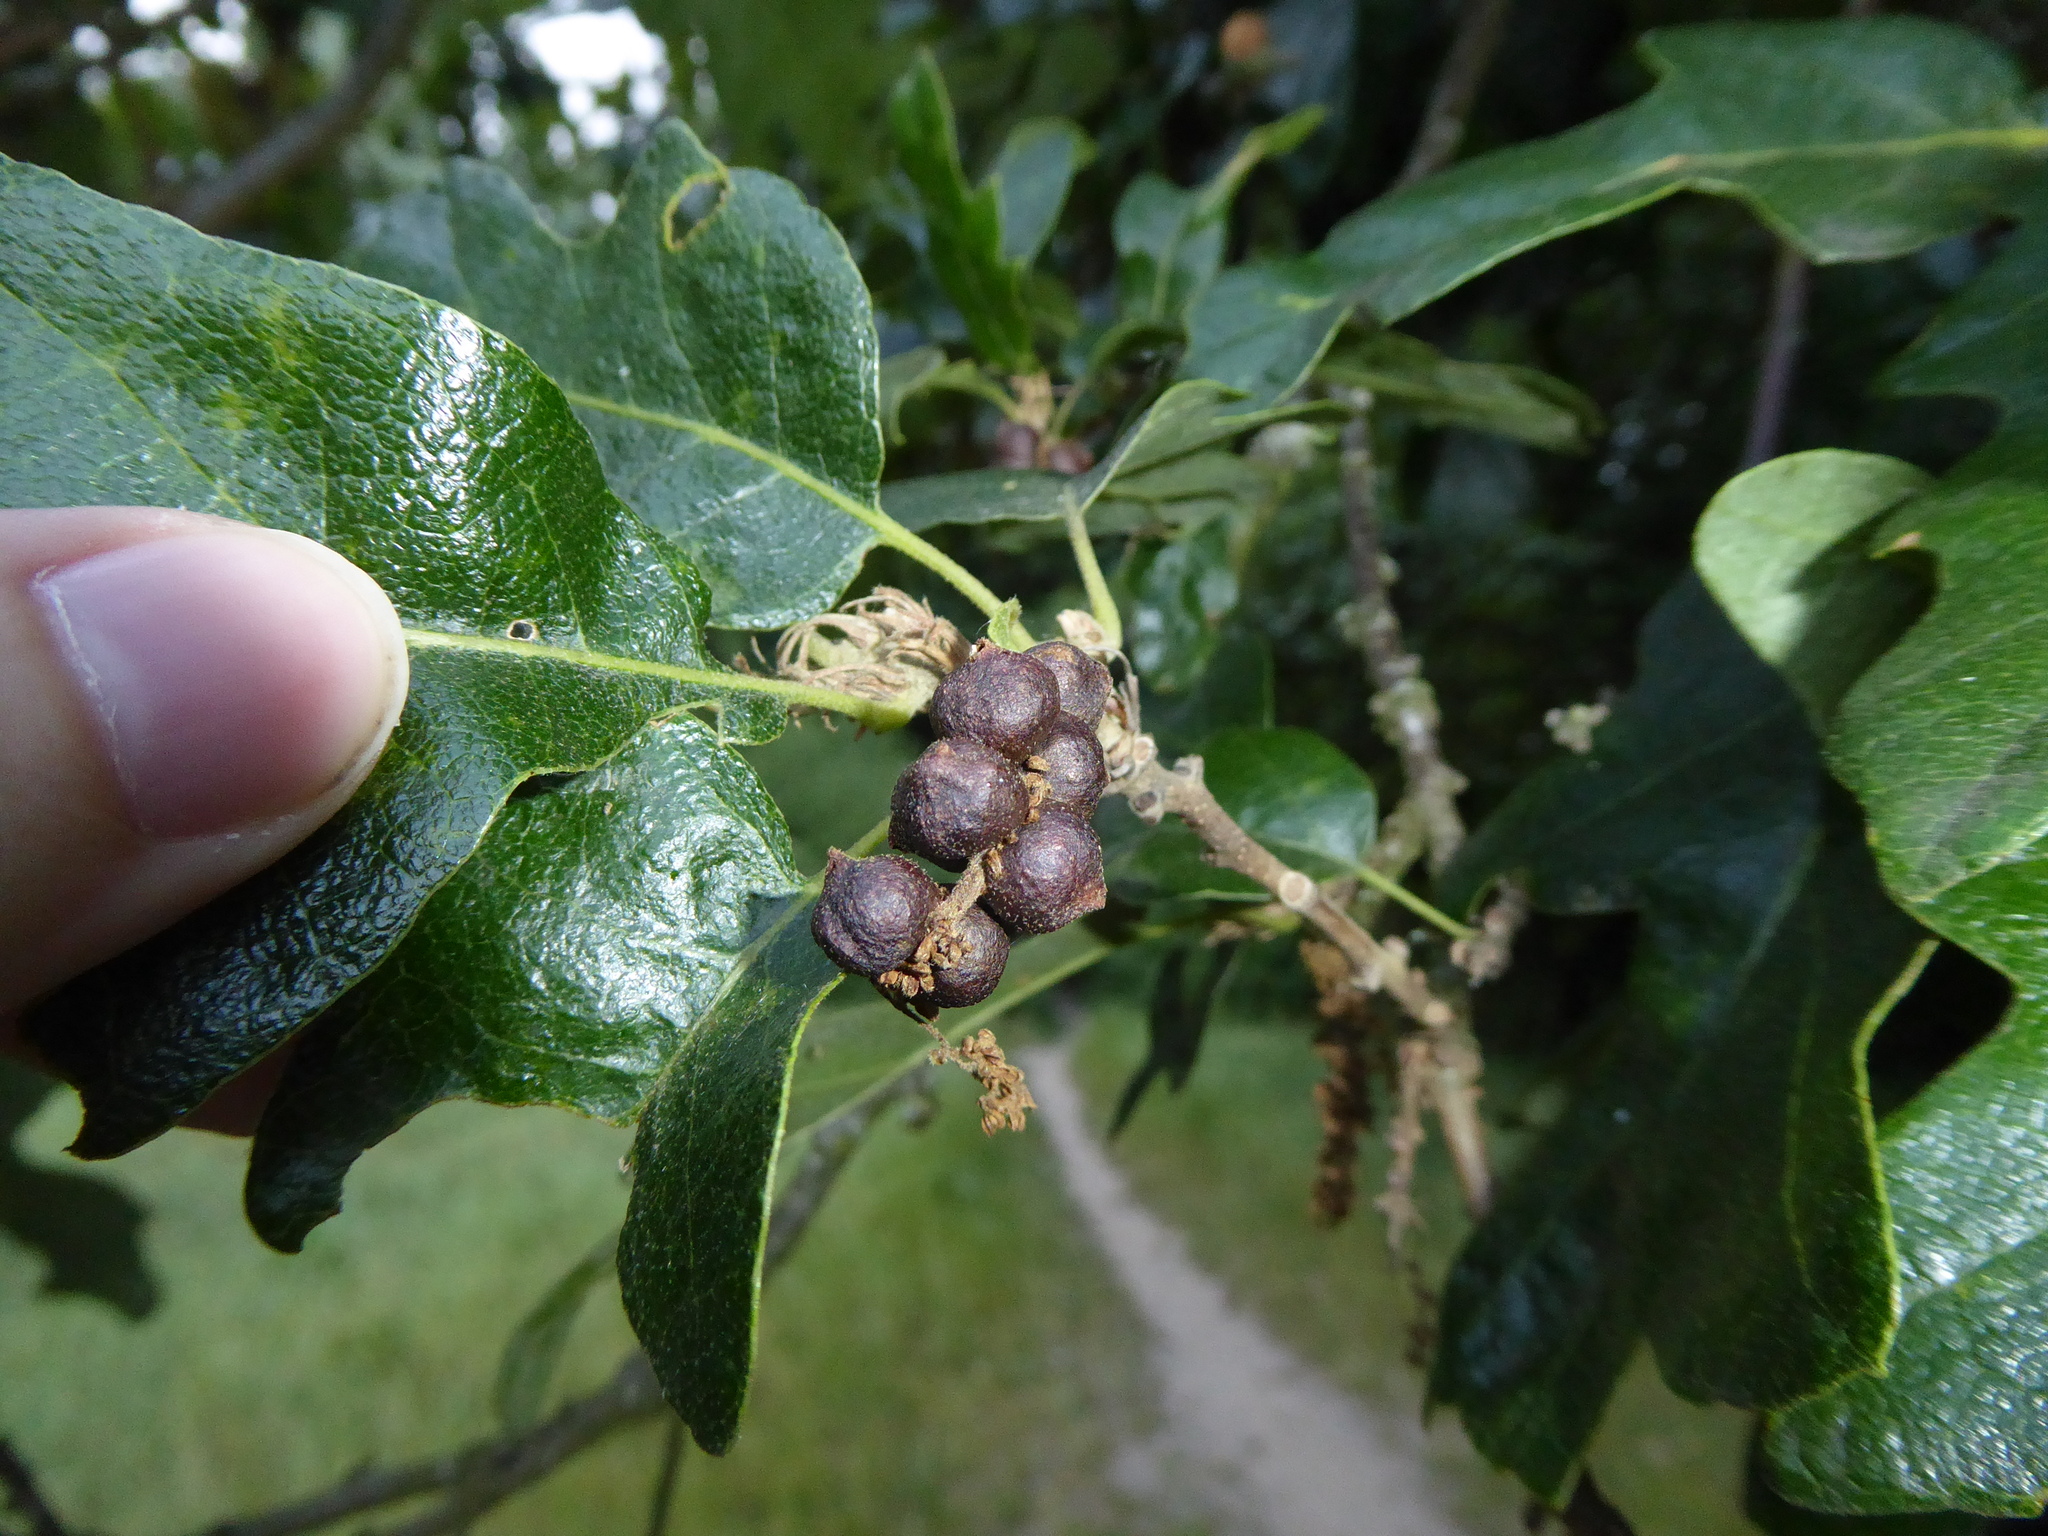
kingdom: Animalia
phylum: Arthropoda
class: Insecta
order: Hymenoptera
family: Cynipidae
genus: Andricus
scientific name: Andricus grossulariae
